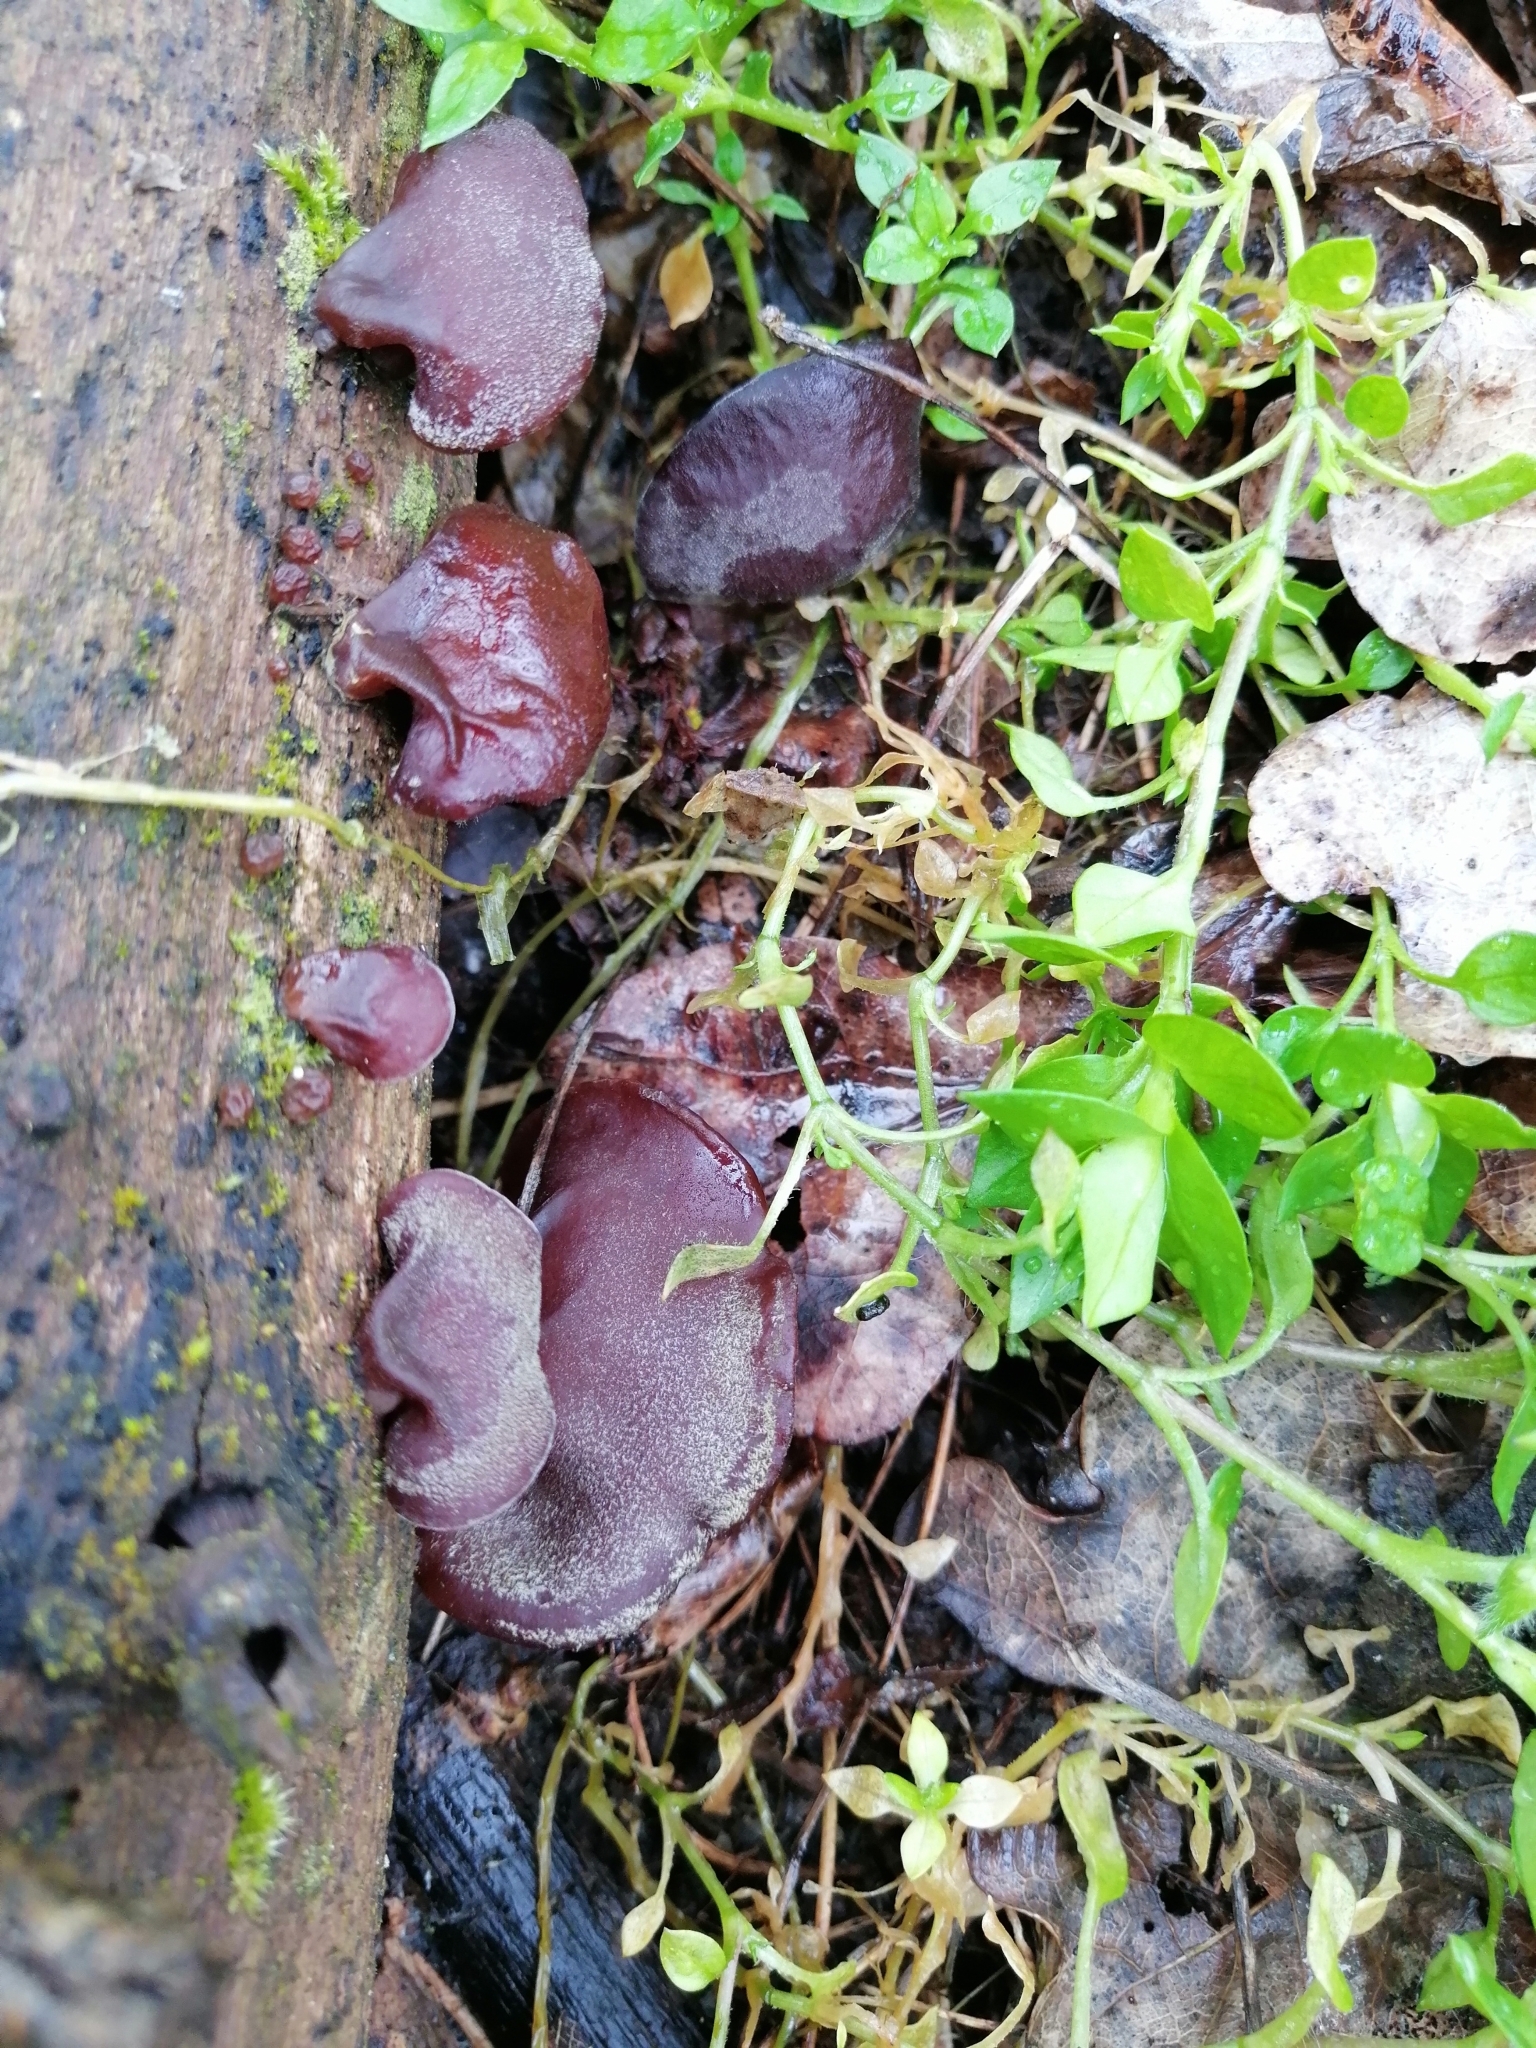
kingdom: Fungi
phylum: Basidiomycota
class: Agaricomycetes
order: Auriculariales
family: Auriculariaceae
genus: Auricularia
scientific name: Auricularia auricula-judae
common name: Jelly ear
